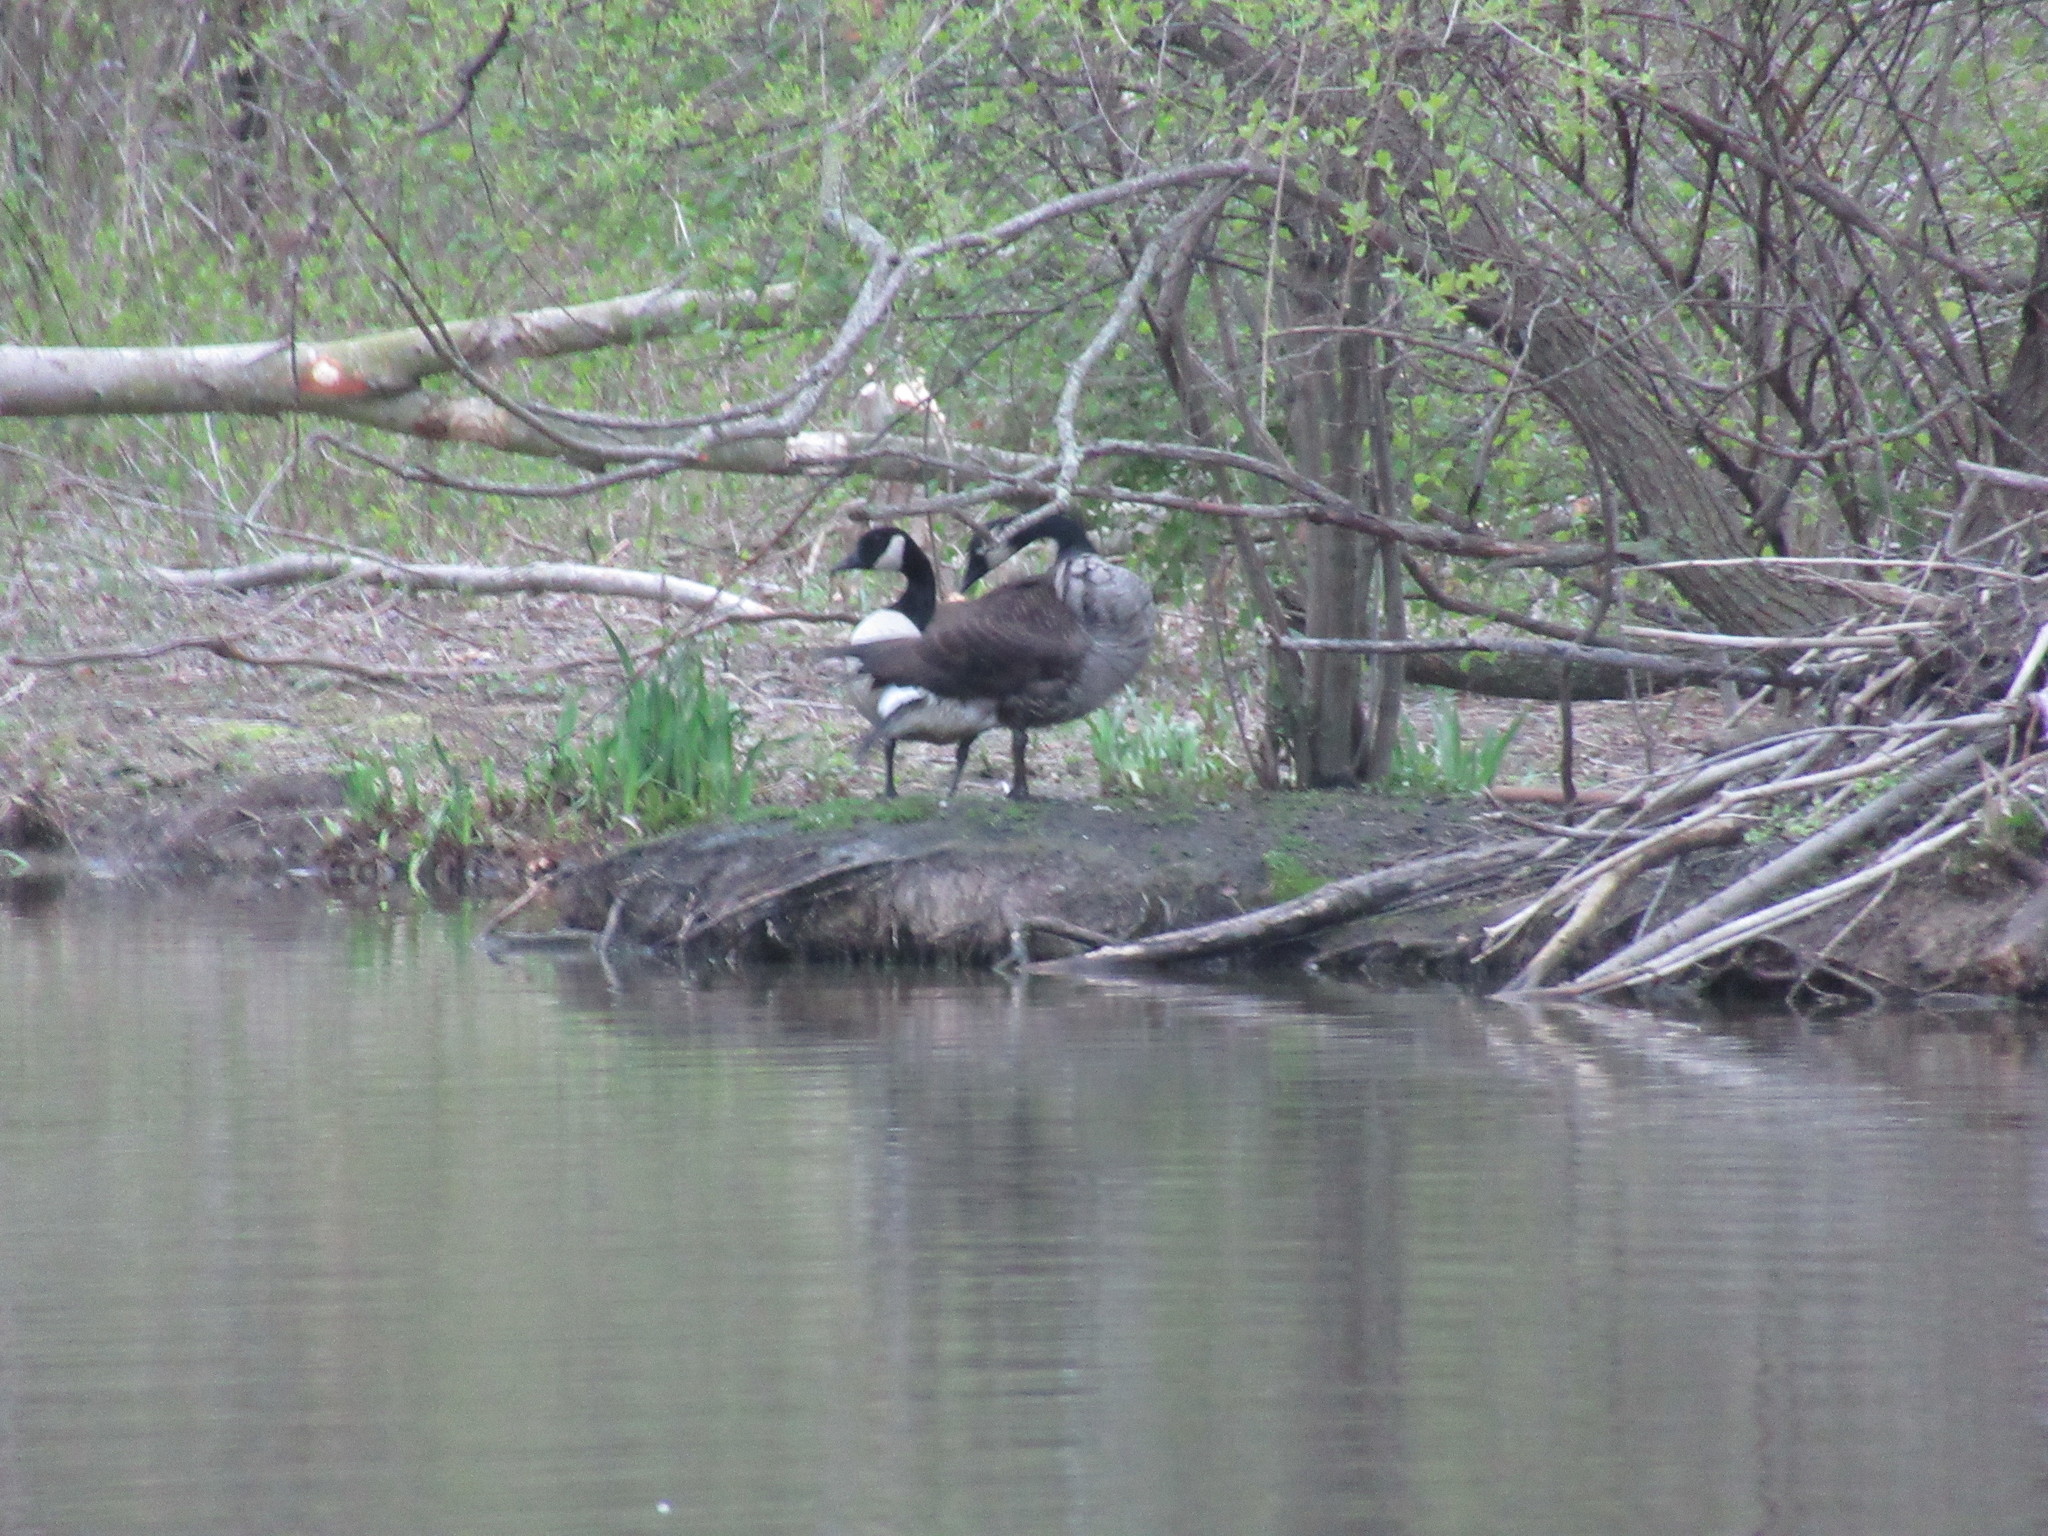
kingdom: Animalia
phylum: Chordata
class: Aves
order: Anseriformes
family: Anatidae
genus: Branta
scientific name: Branta canadensis
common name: Canada goose
